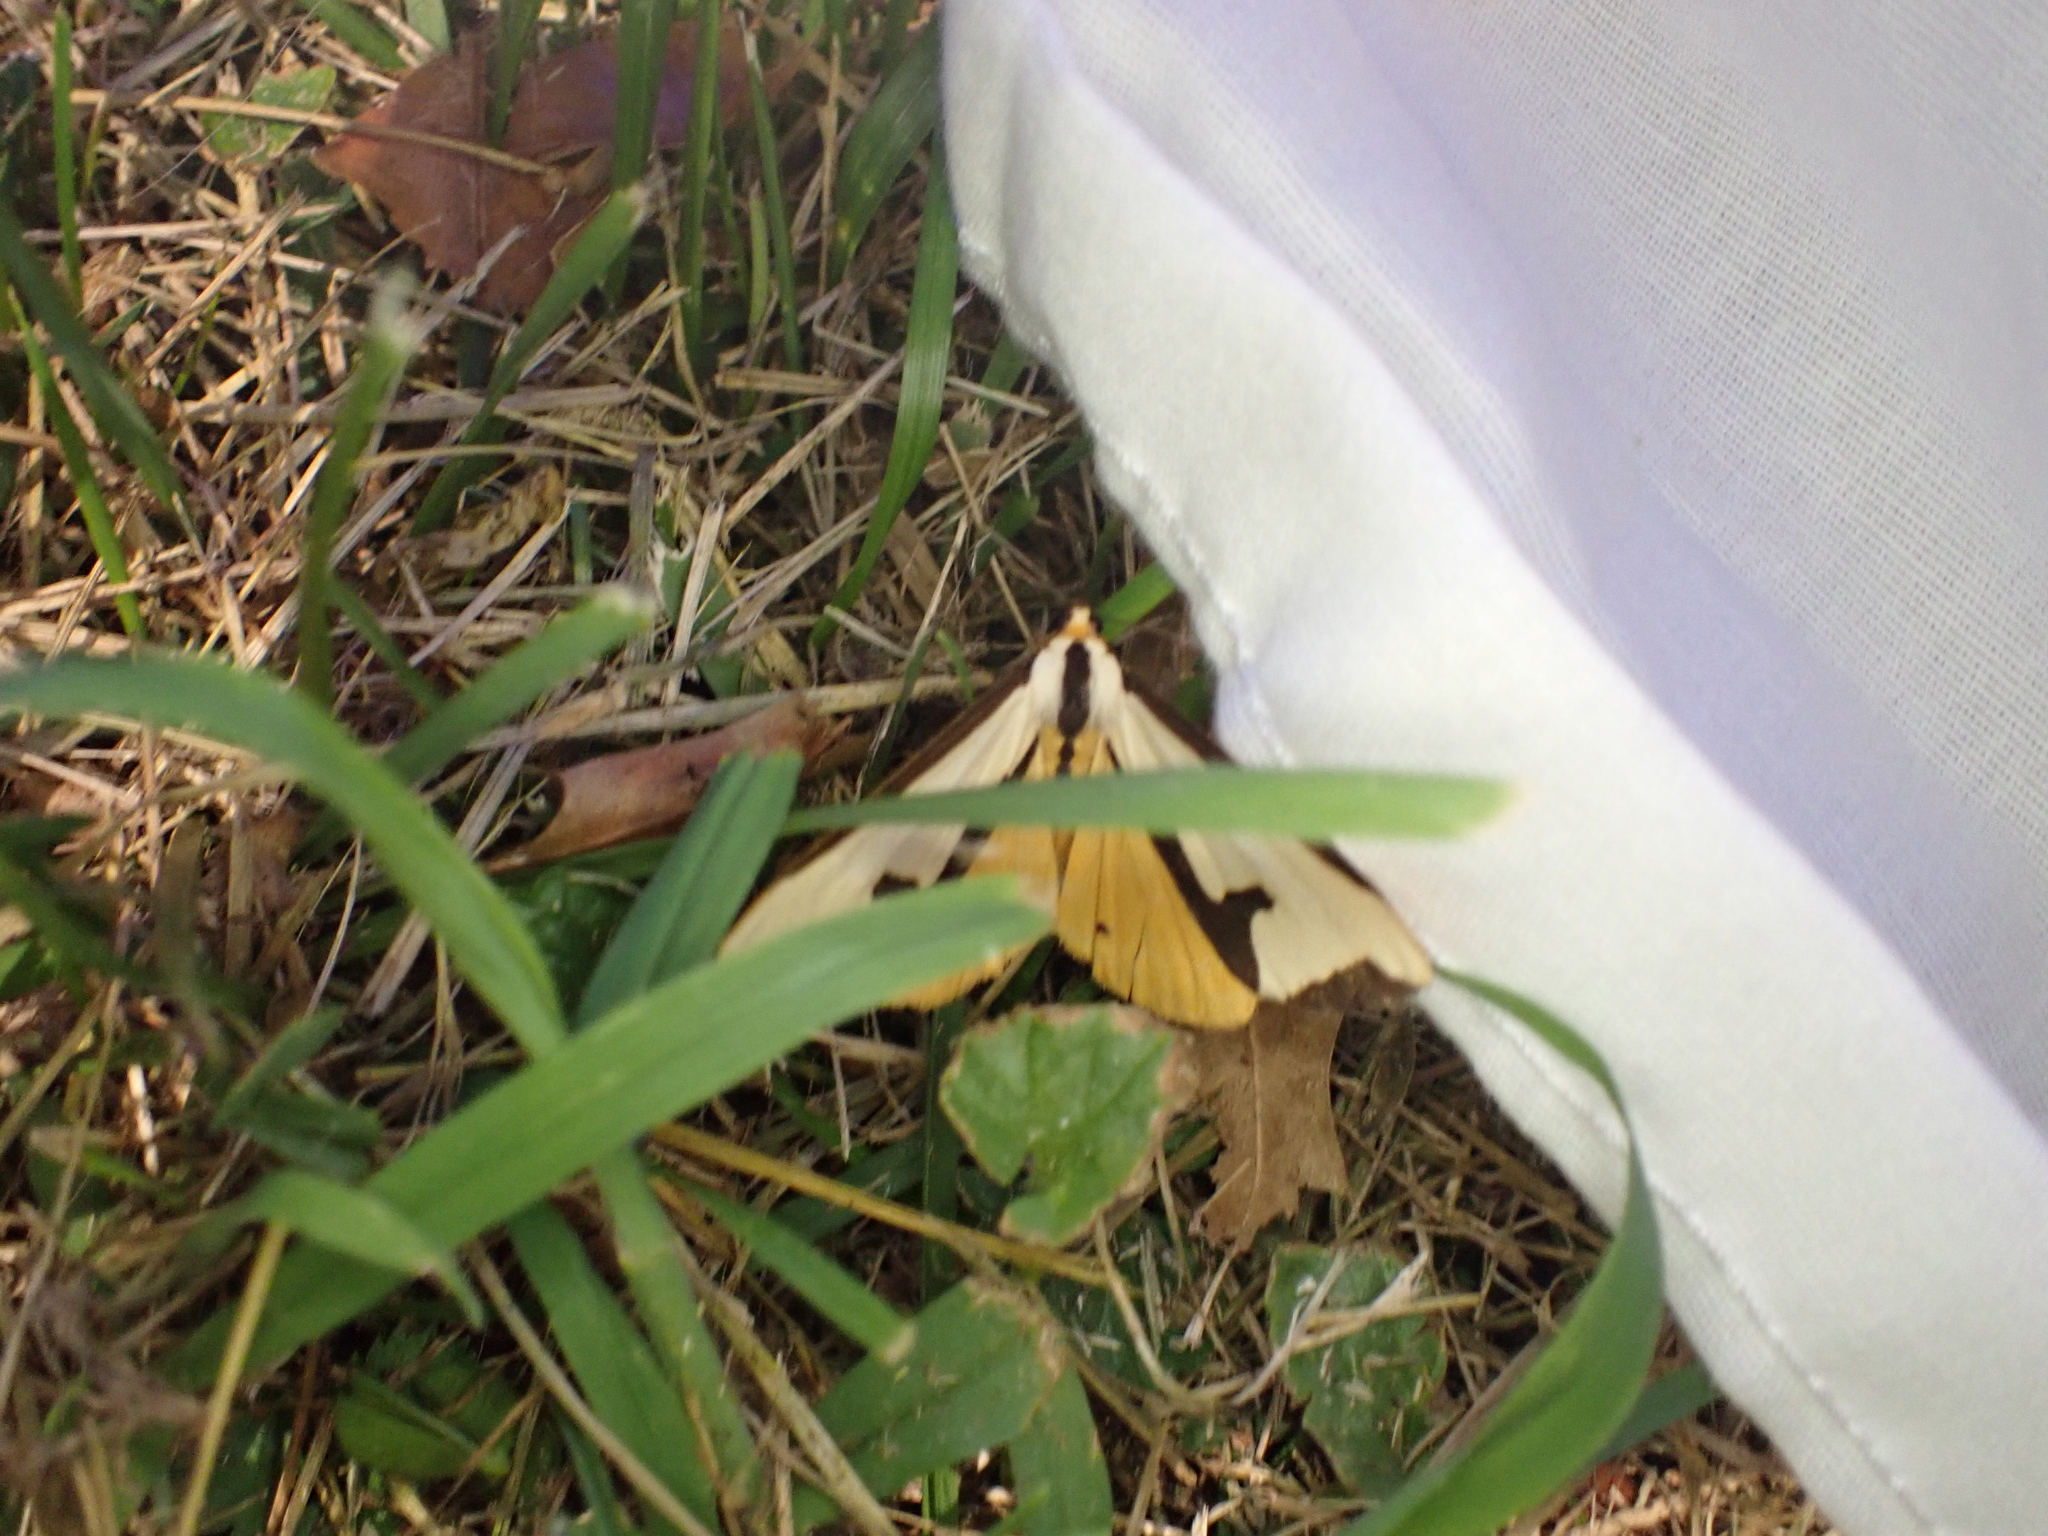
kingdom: Animalia
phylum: Arthropoda
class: Insecta
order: Lepidoptera
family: Erebidae
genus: Haploa
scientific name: Haploa clymene
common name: Clymene moth
